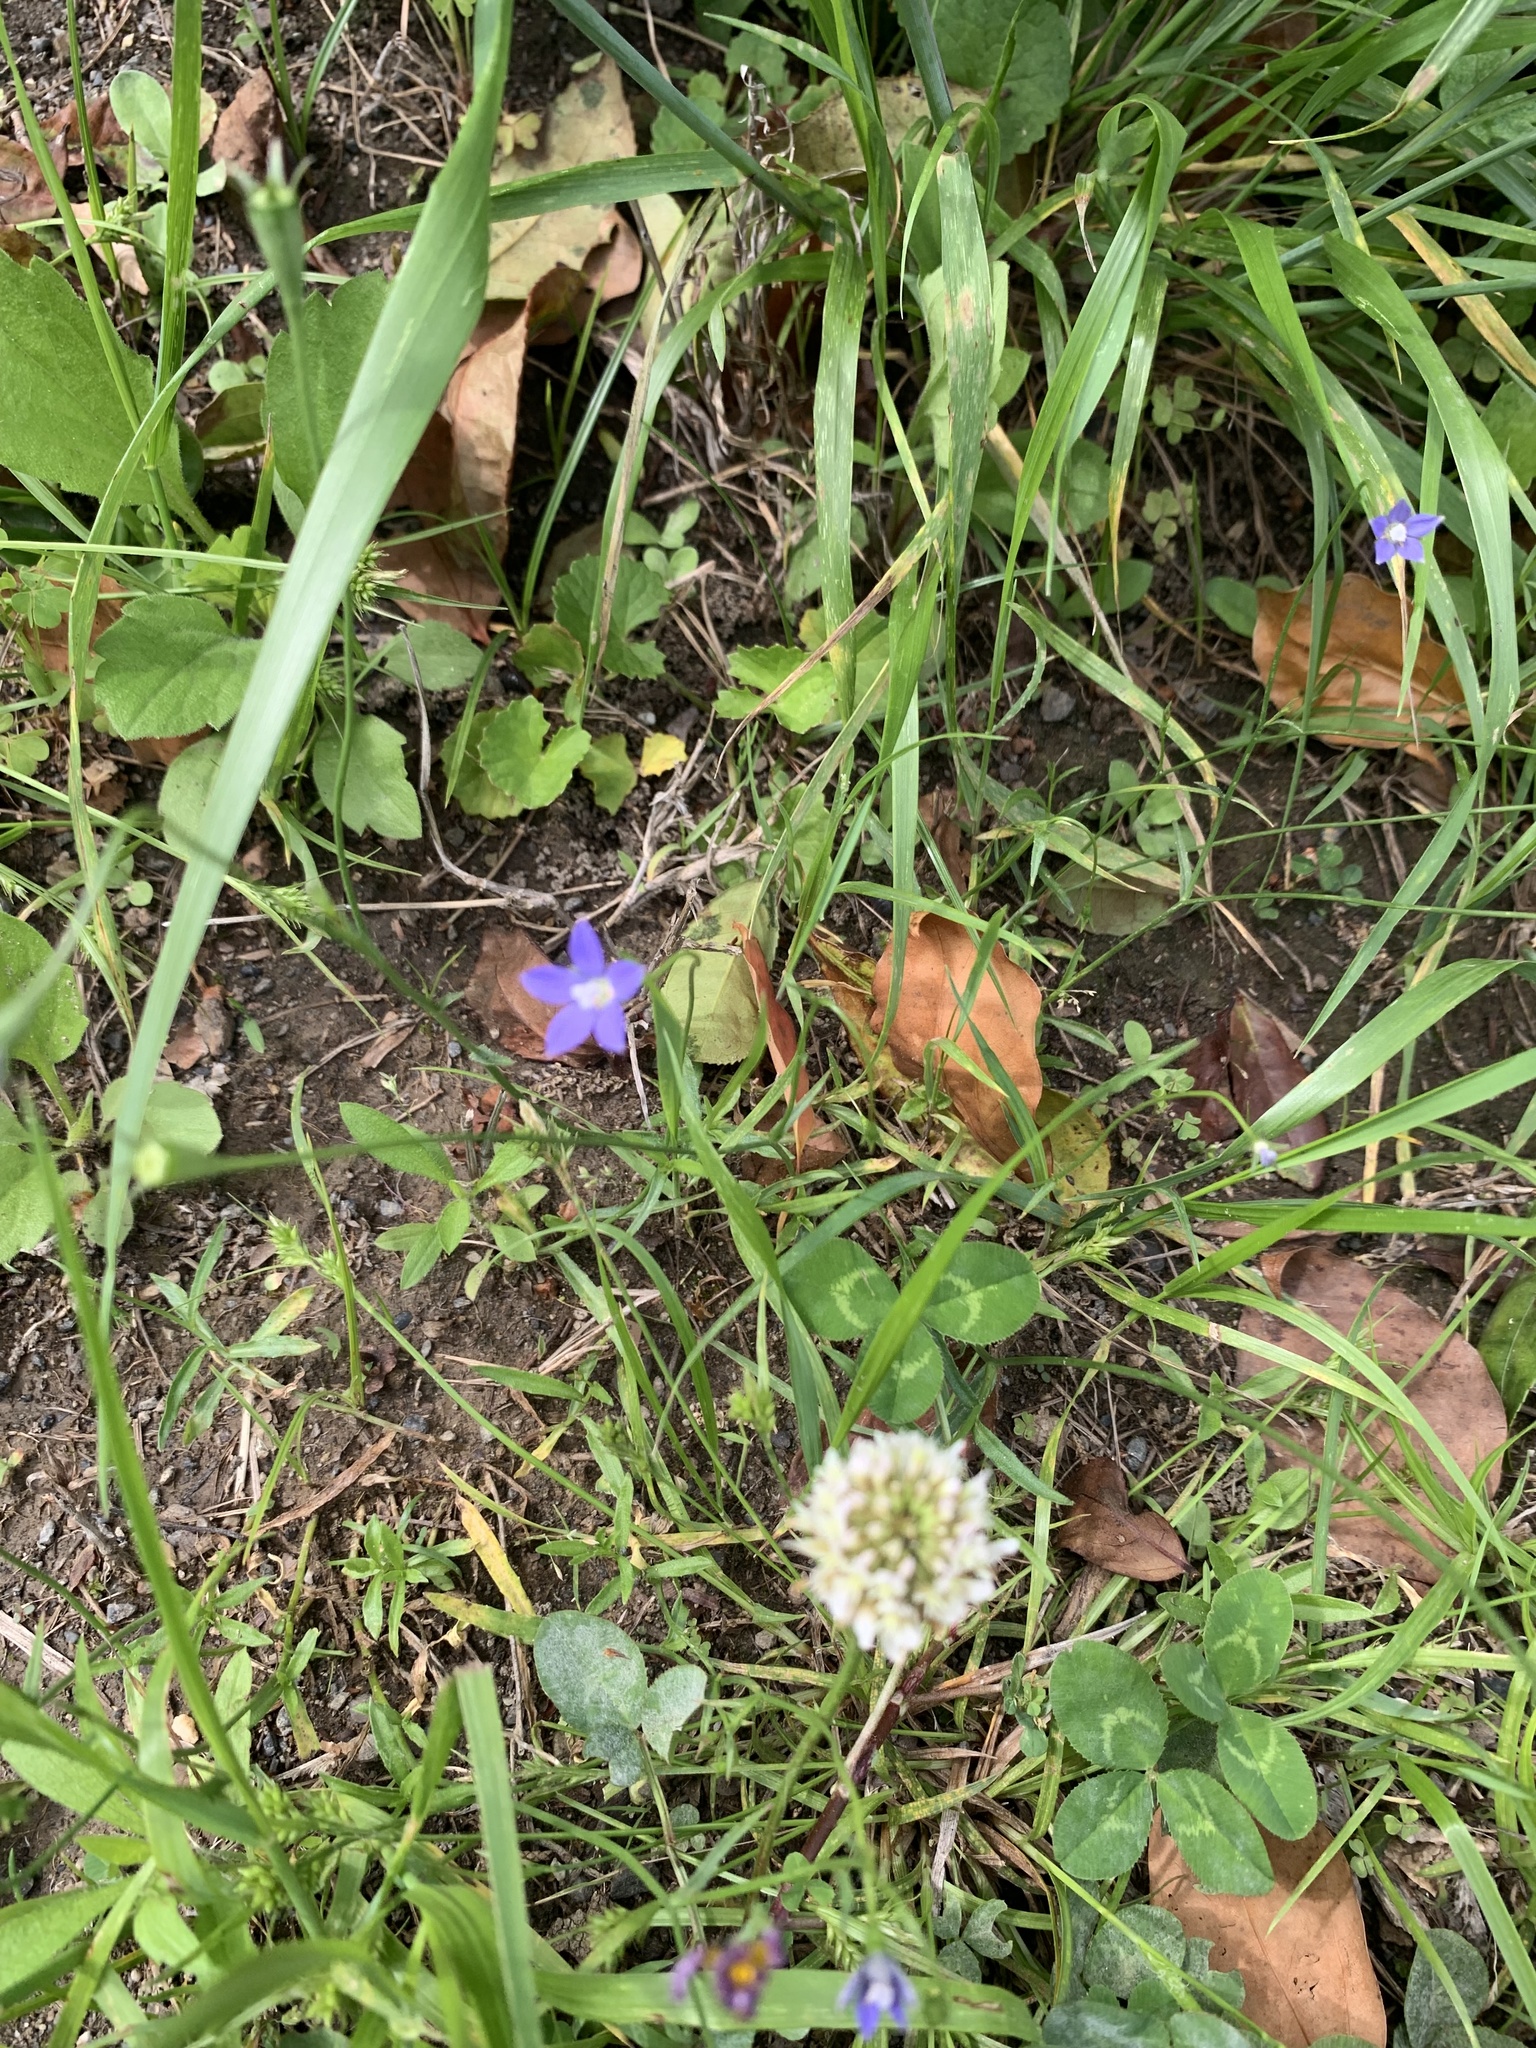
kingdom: Plantae
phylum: Tracheophyta
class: Magnoliopsida
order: Asterales
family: Campanulaceae
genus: Wahlenbergia
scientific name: Wahlenbergia marginata
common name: Southern rockbell
